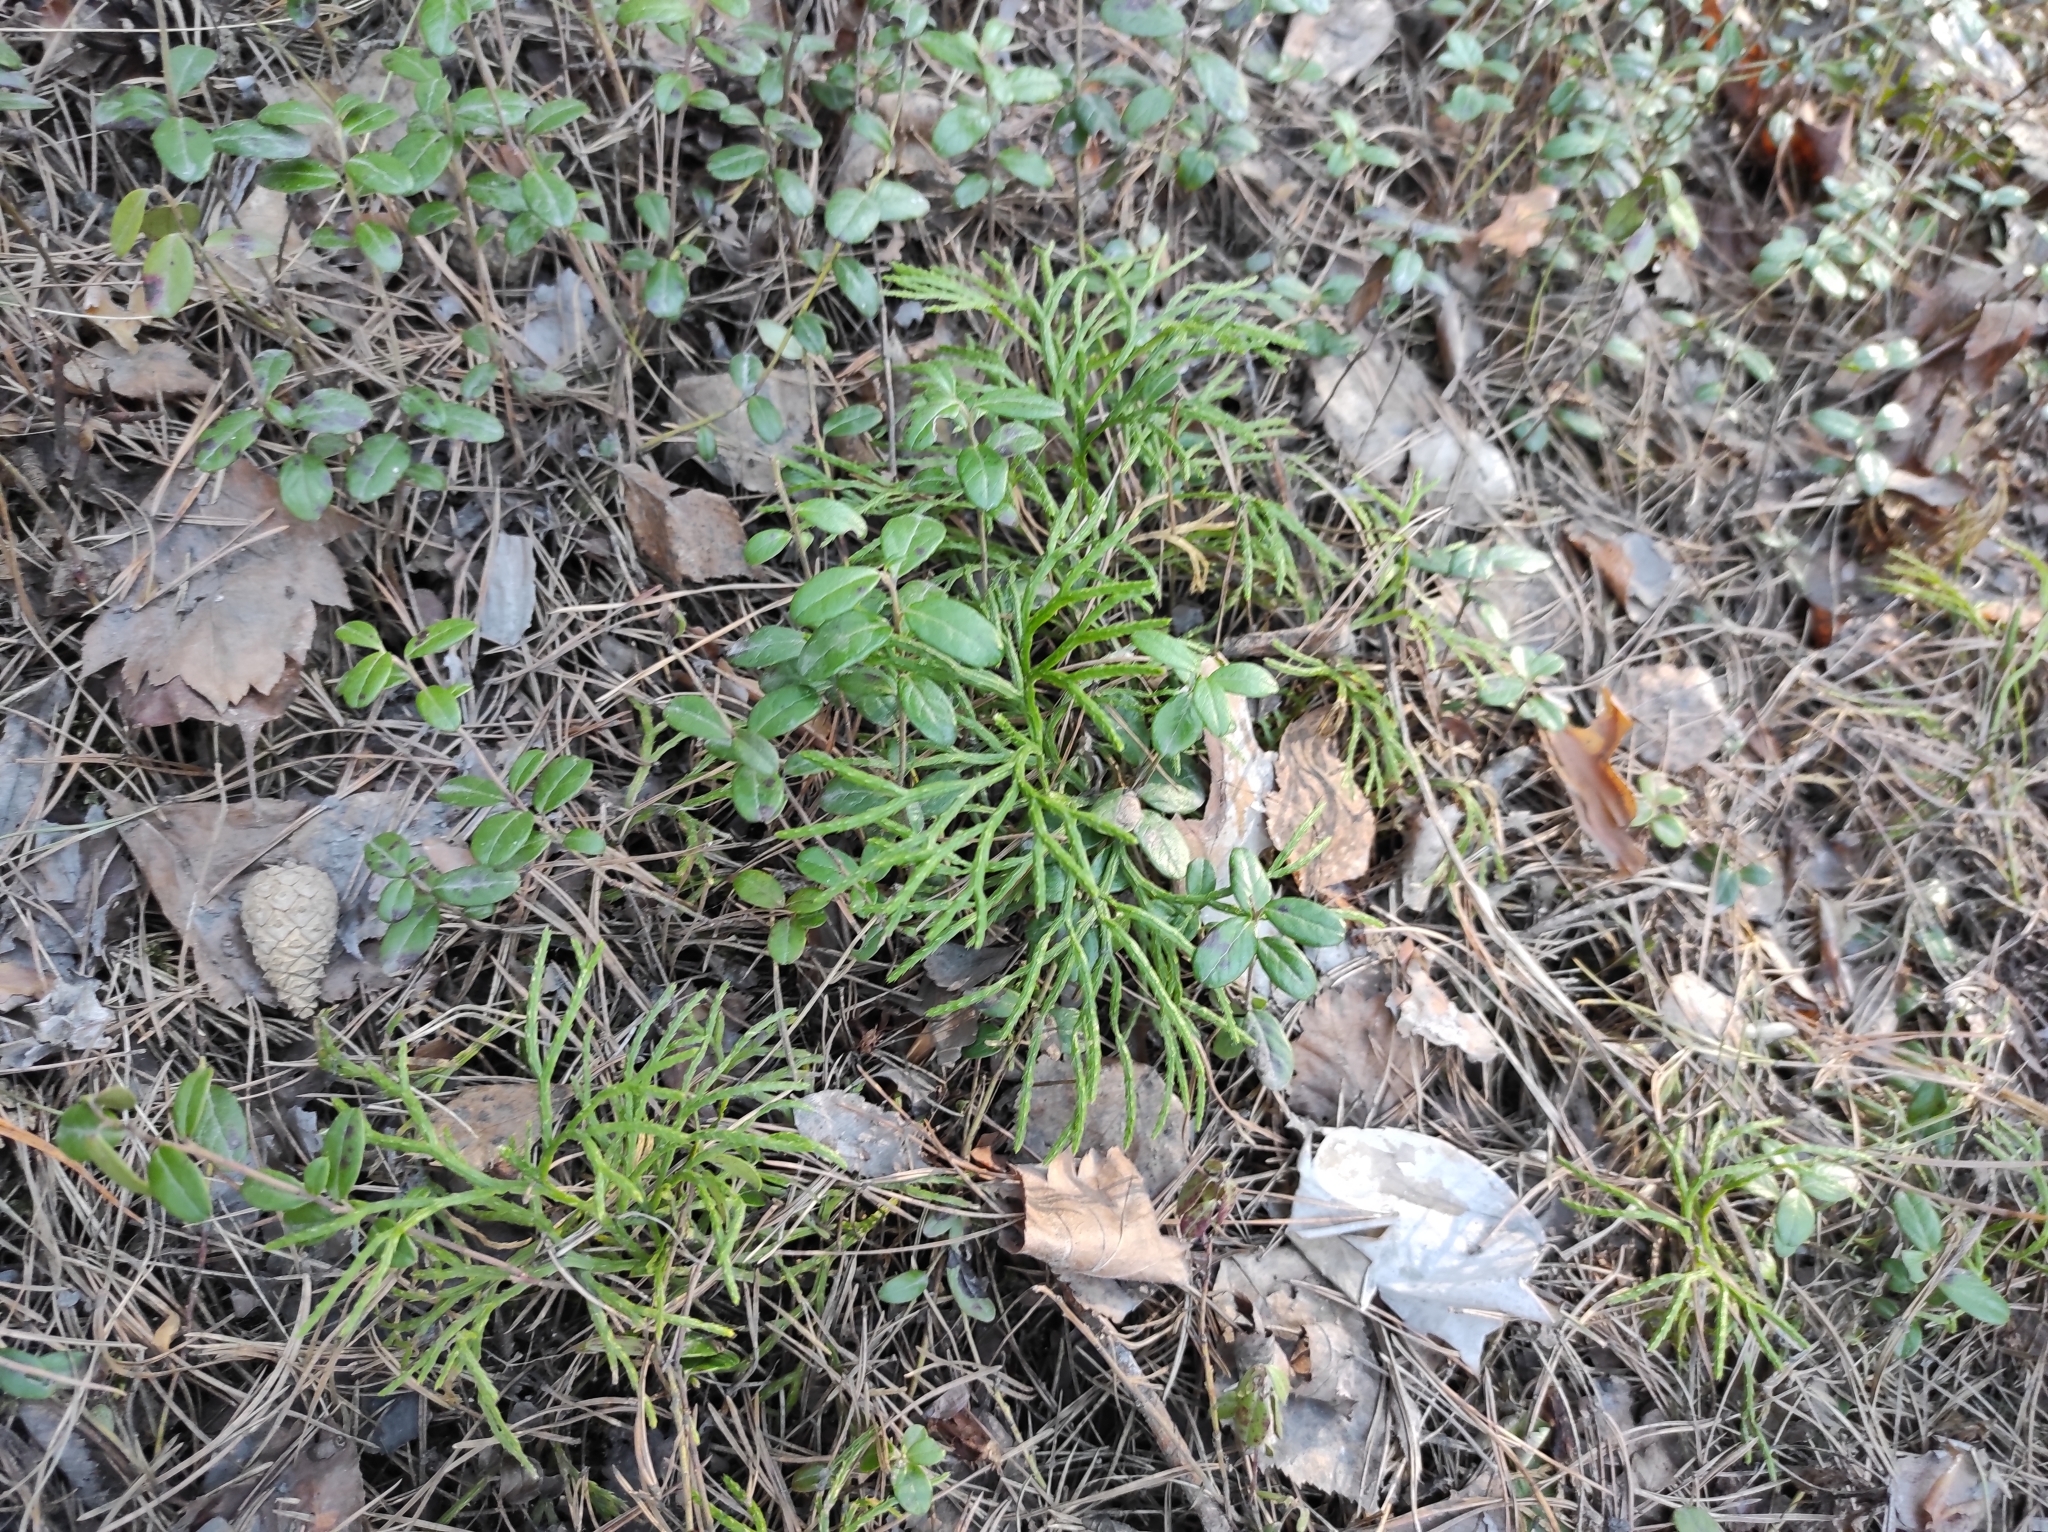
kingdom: Plantae
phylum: Tracheophyta
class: Lycopodiopsida
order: Lycopodiales
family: Lycopodiaceae
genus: Diphasiastrum
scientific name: Diphasiastrum complanatum
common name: Northern running-pine
